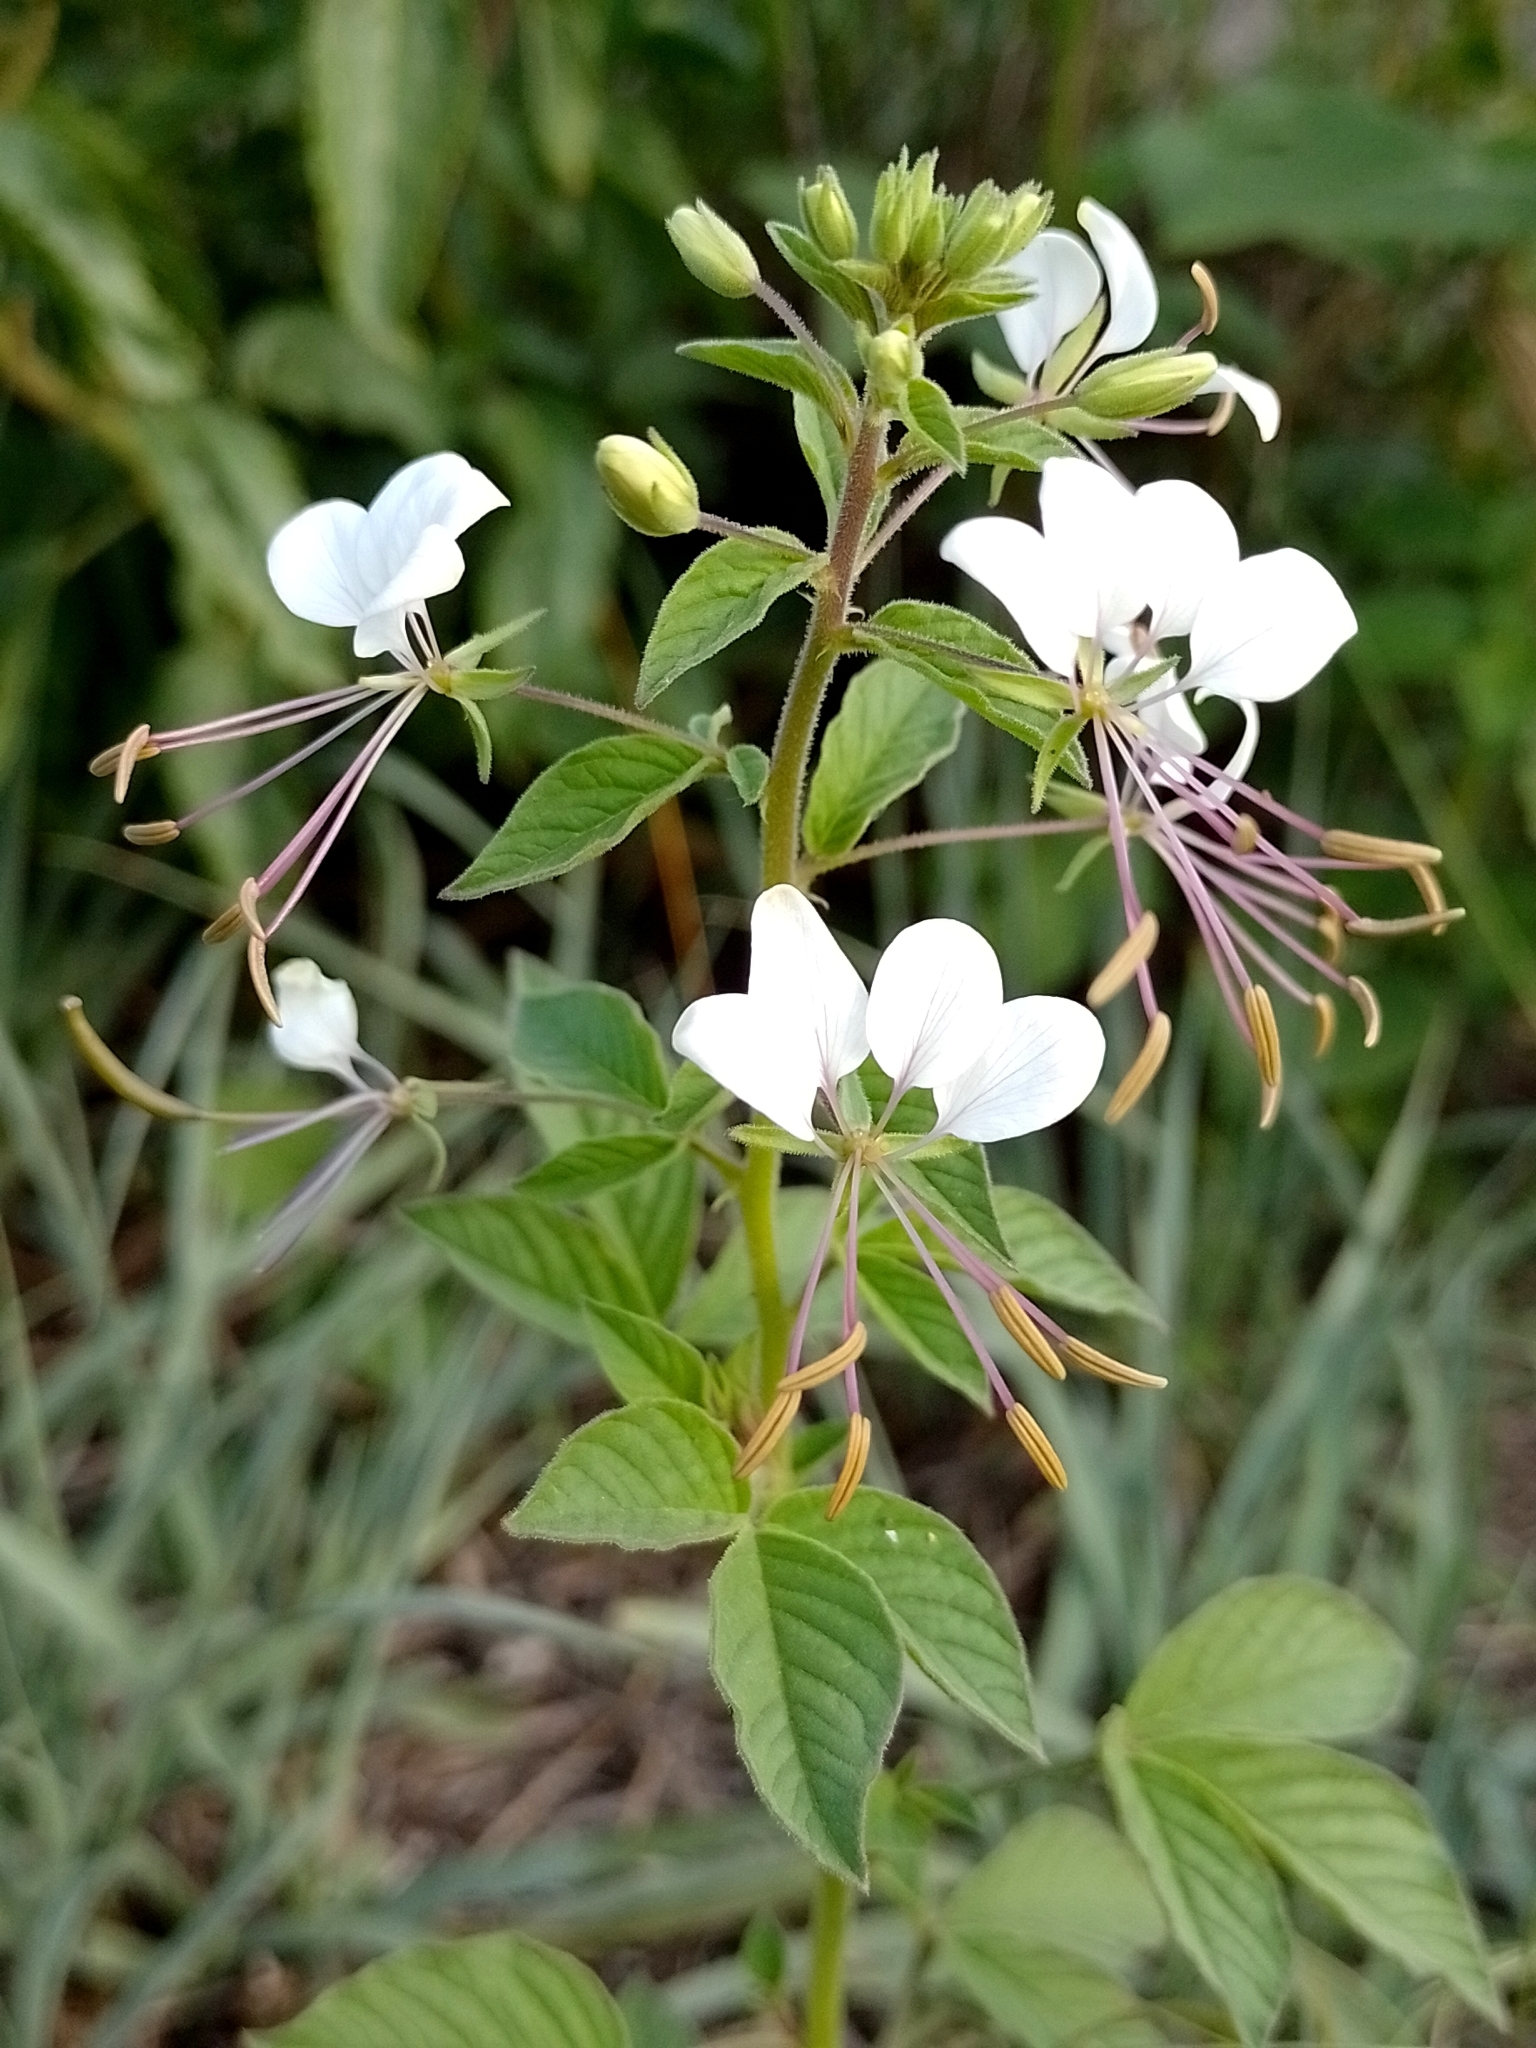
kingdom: Plantae
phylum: Tracheophyta
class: Magnoliopsida
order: Brassicales
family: Cleomaceae
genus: Tarenaya
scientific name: Tarenaya cordobensis
